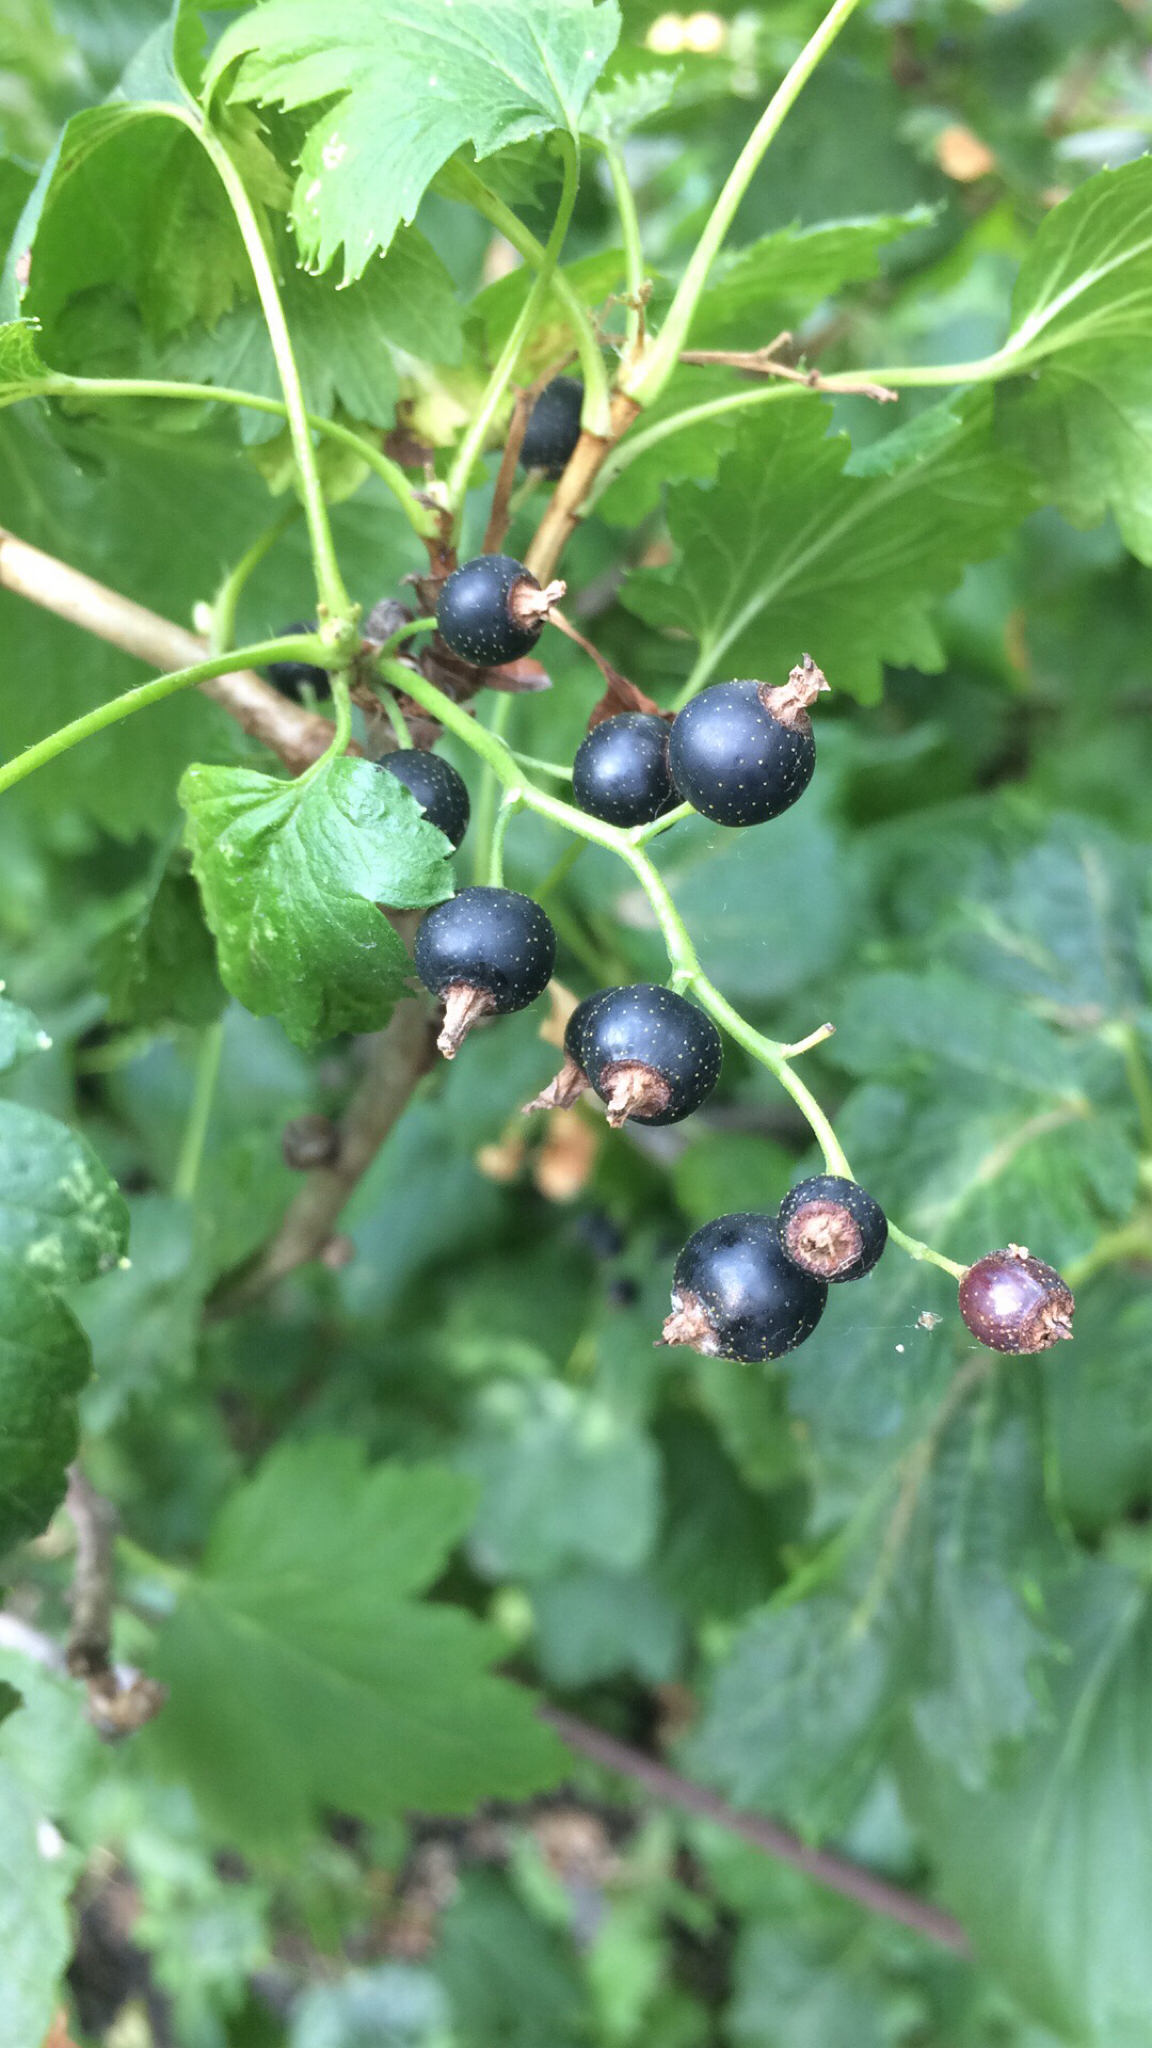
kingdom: Plantae
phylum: Tracheophyta
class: Magnoliopsida
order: Saxifragales
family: Grossulariaceae
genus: Ribes
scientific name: Ribes nigrum
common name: Black currant
